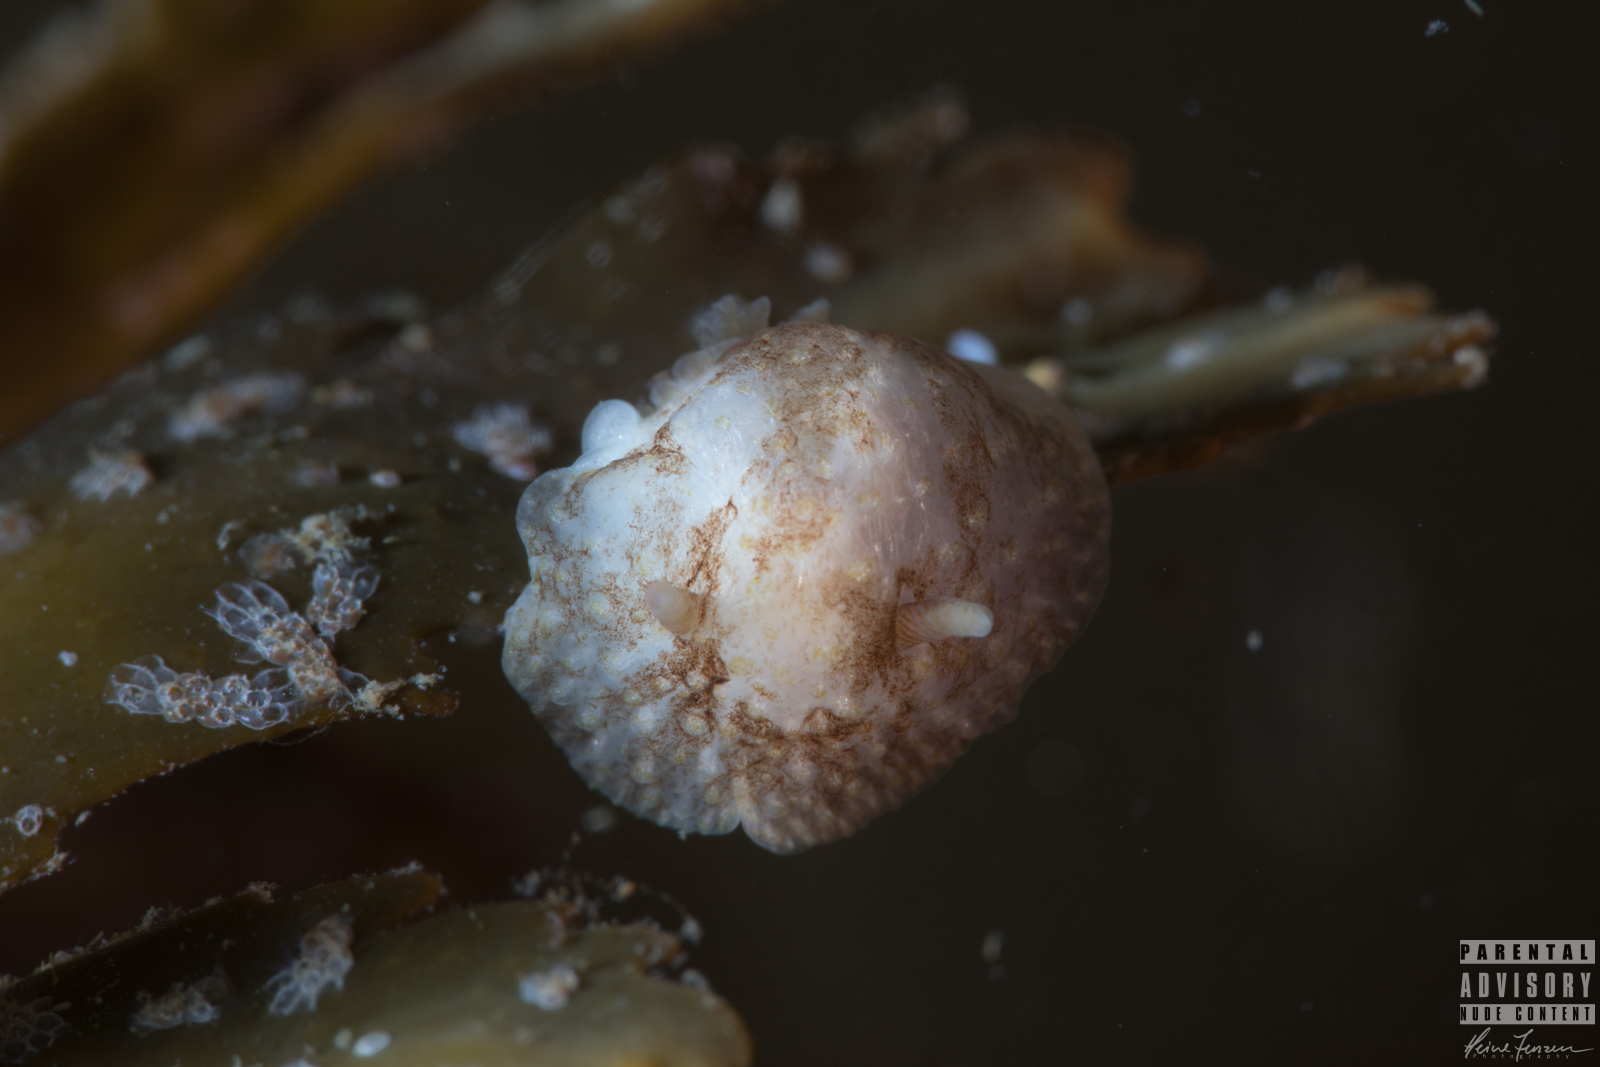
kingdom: Animalia
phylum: Mollusca
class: Gastropoda
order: Nudibranchia
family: Onchidorididae
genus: Onchidoris
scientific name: Onchidoris bilamellata
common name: Barnacle-eating onchidoris
